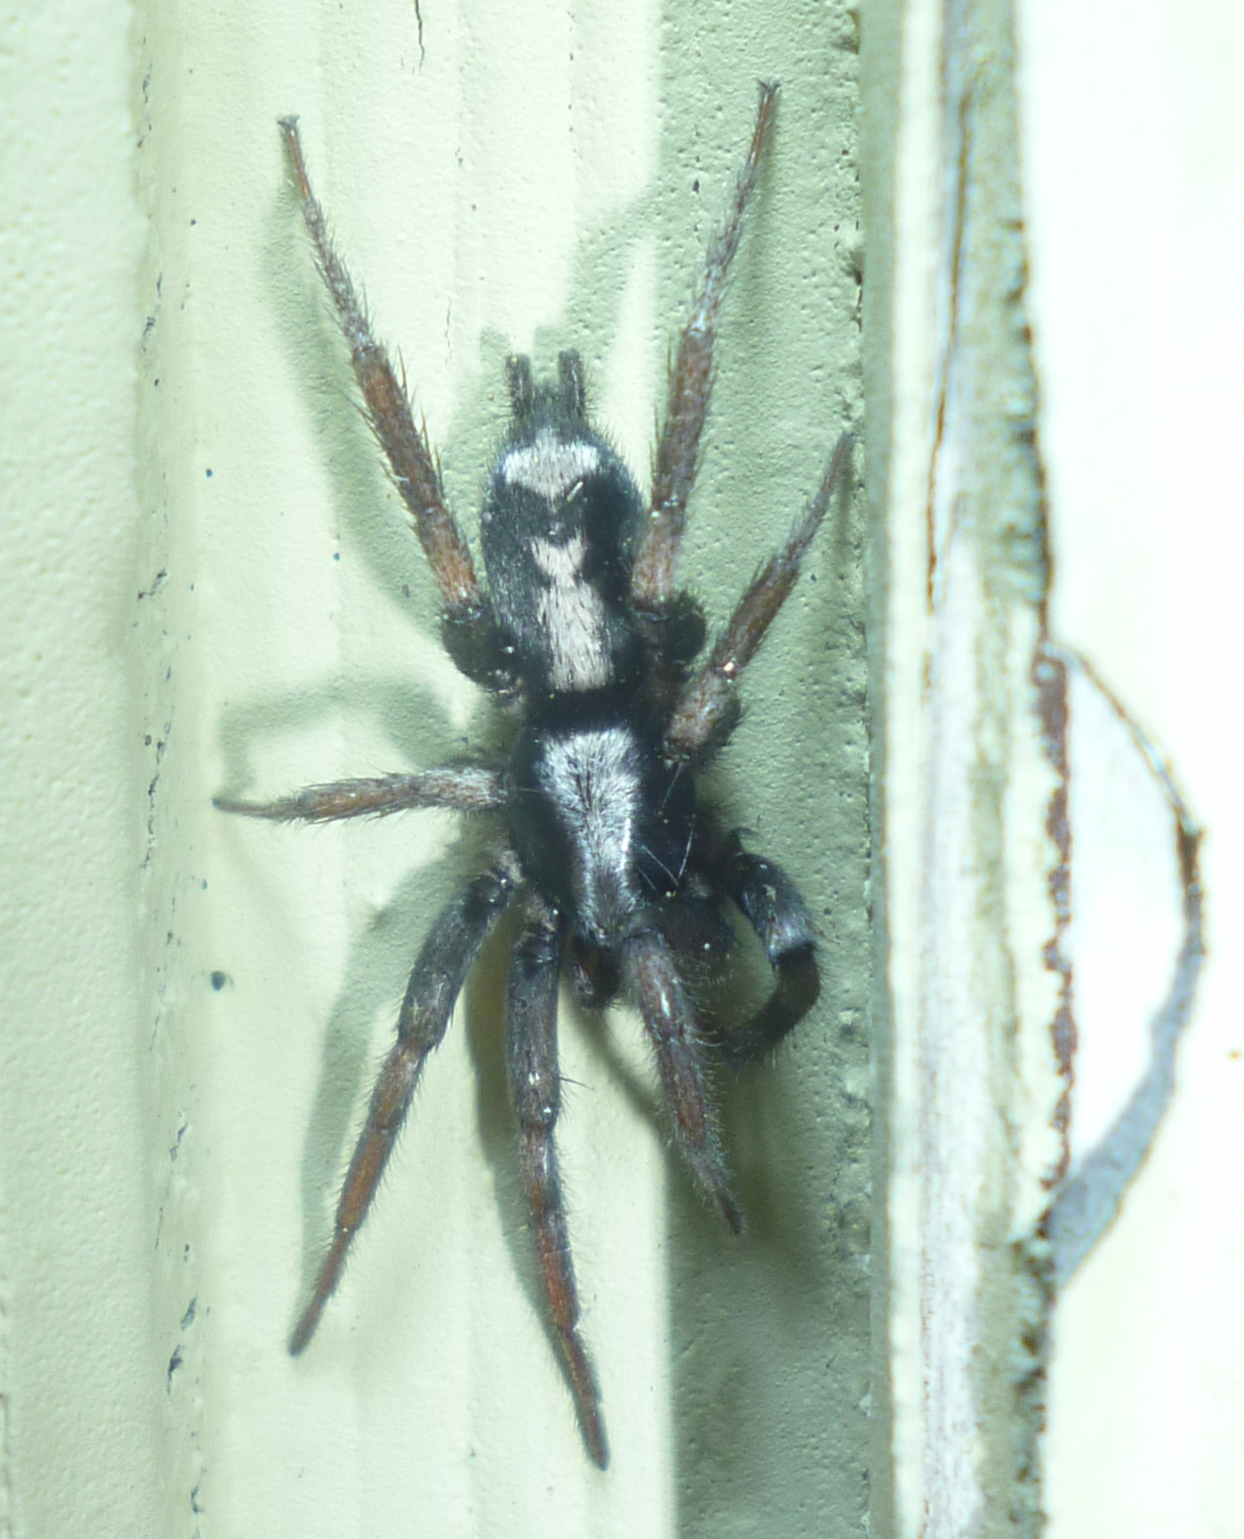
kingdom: Animalia
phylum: Arthropoda
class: Arachnida
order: Araneae
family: Gnaphosidae
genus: Herpyllus
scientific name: Herpyllus ecclesiasticus
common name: Eastern parson spider
